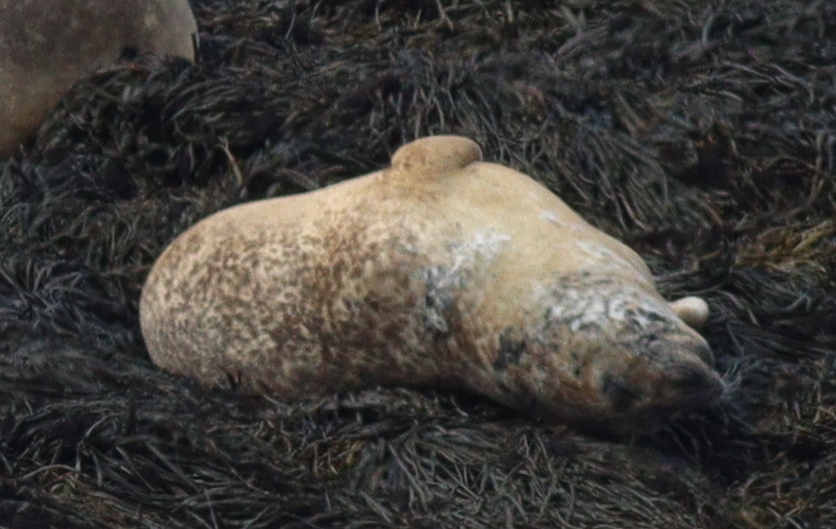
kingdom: Animalia
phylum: Chordata
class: Mammalia
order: Carnivora
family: Phocidae
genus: Phoca
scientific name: Phoca vitulina
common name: Harbor seal
